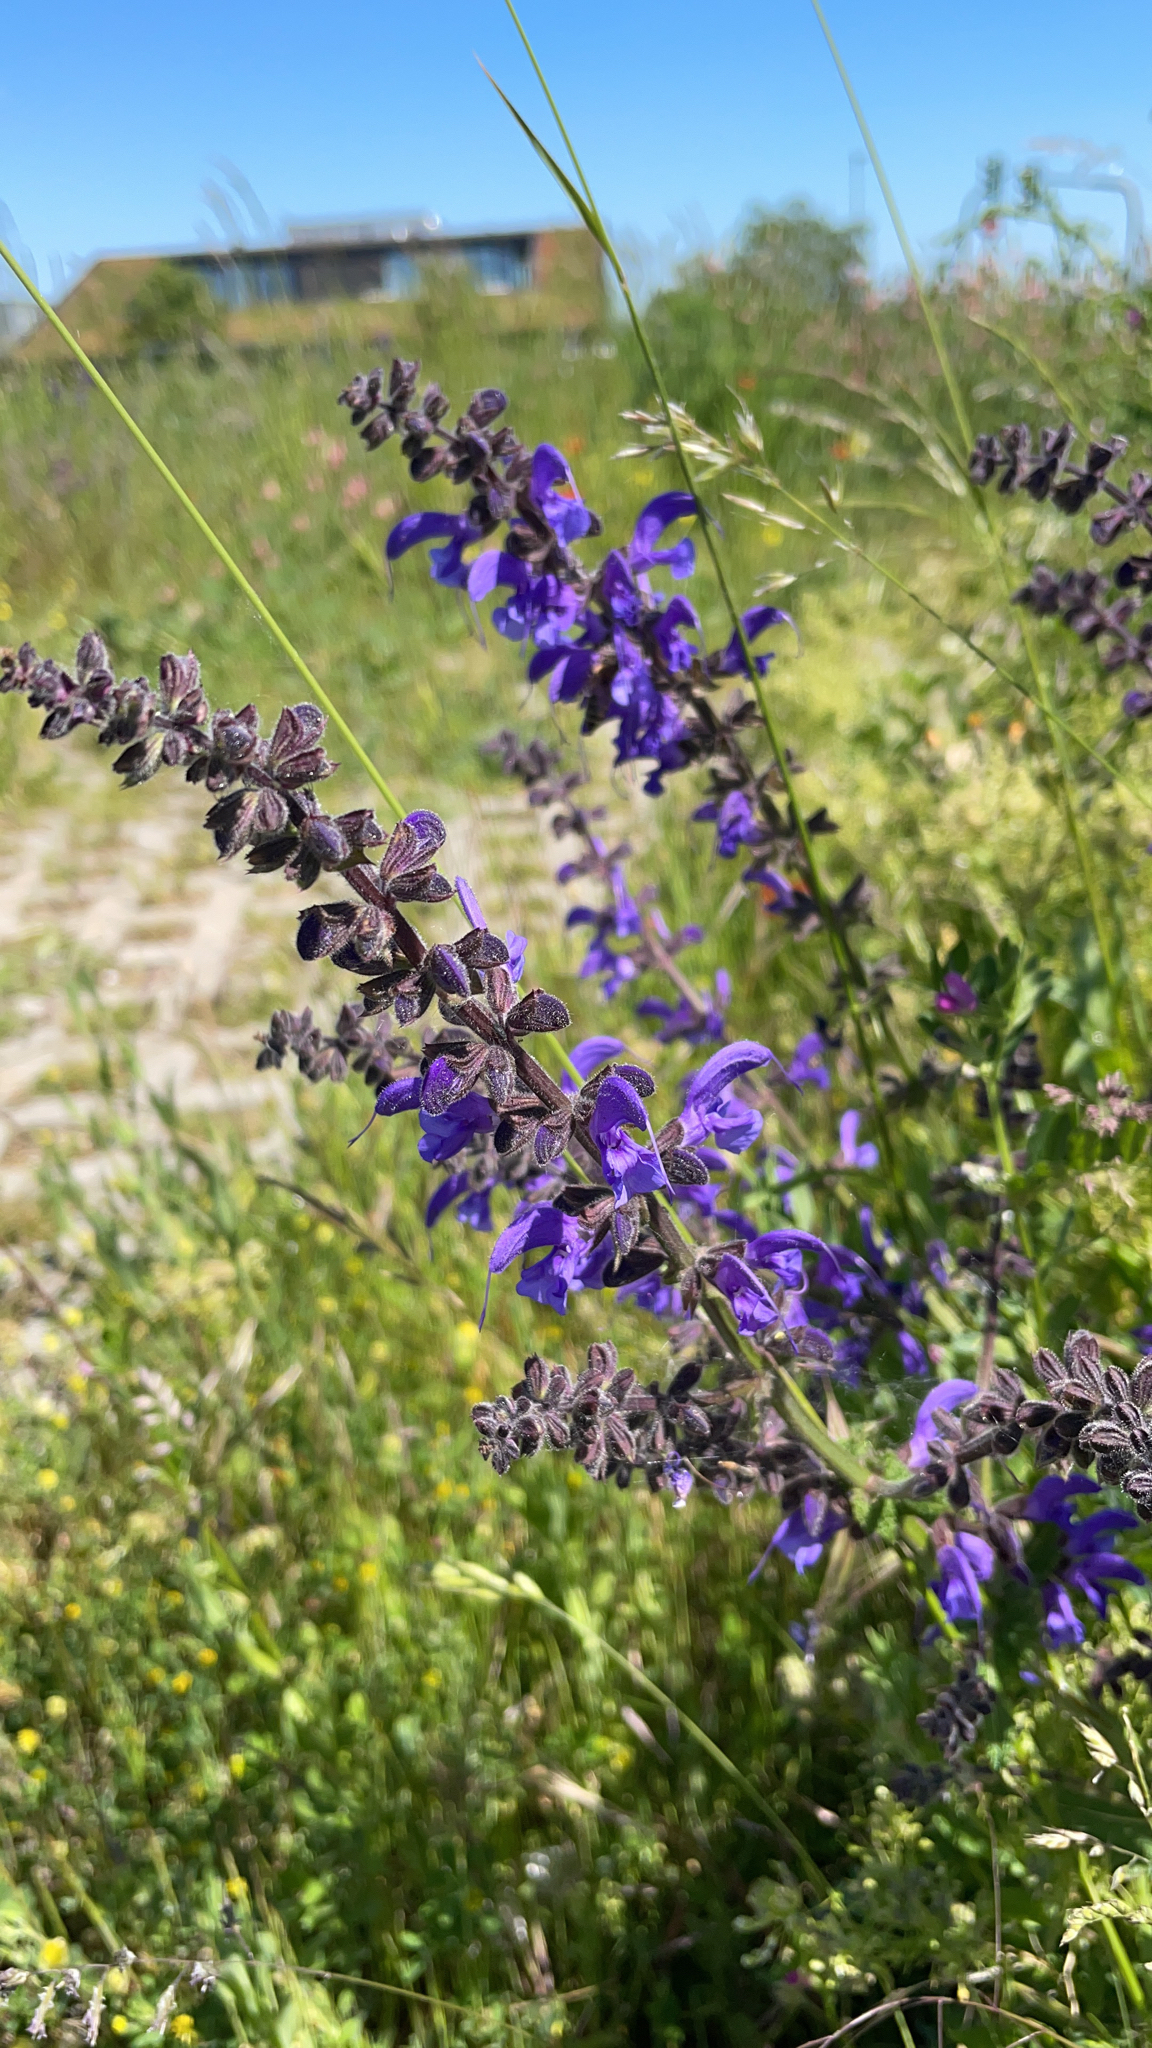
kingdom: Plantae
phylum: Tracheophyta
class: Magnoliopsida
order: Lamiales
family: Lamiaceae
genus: Salvia
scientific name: Salvia pratensis
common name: Meadow sage
